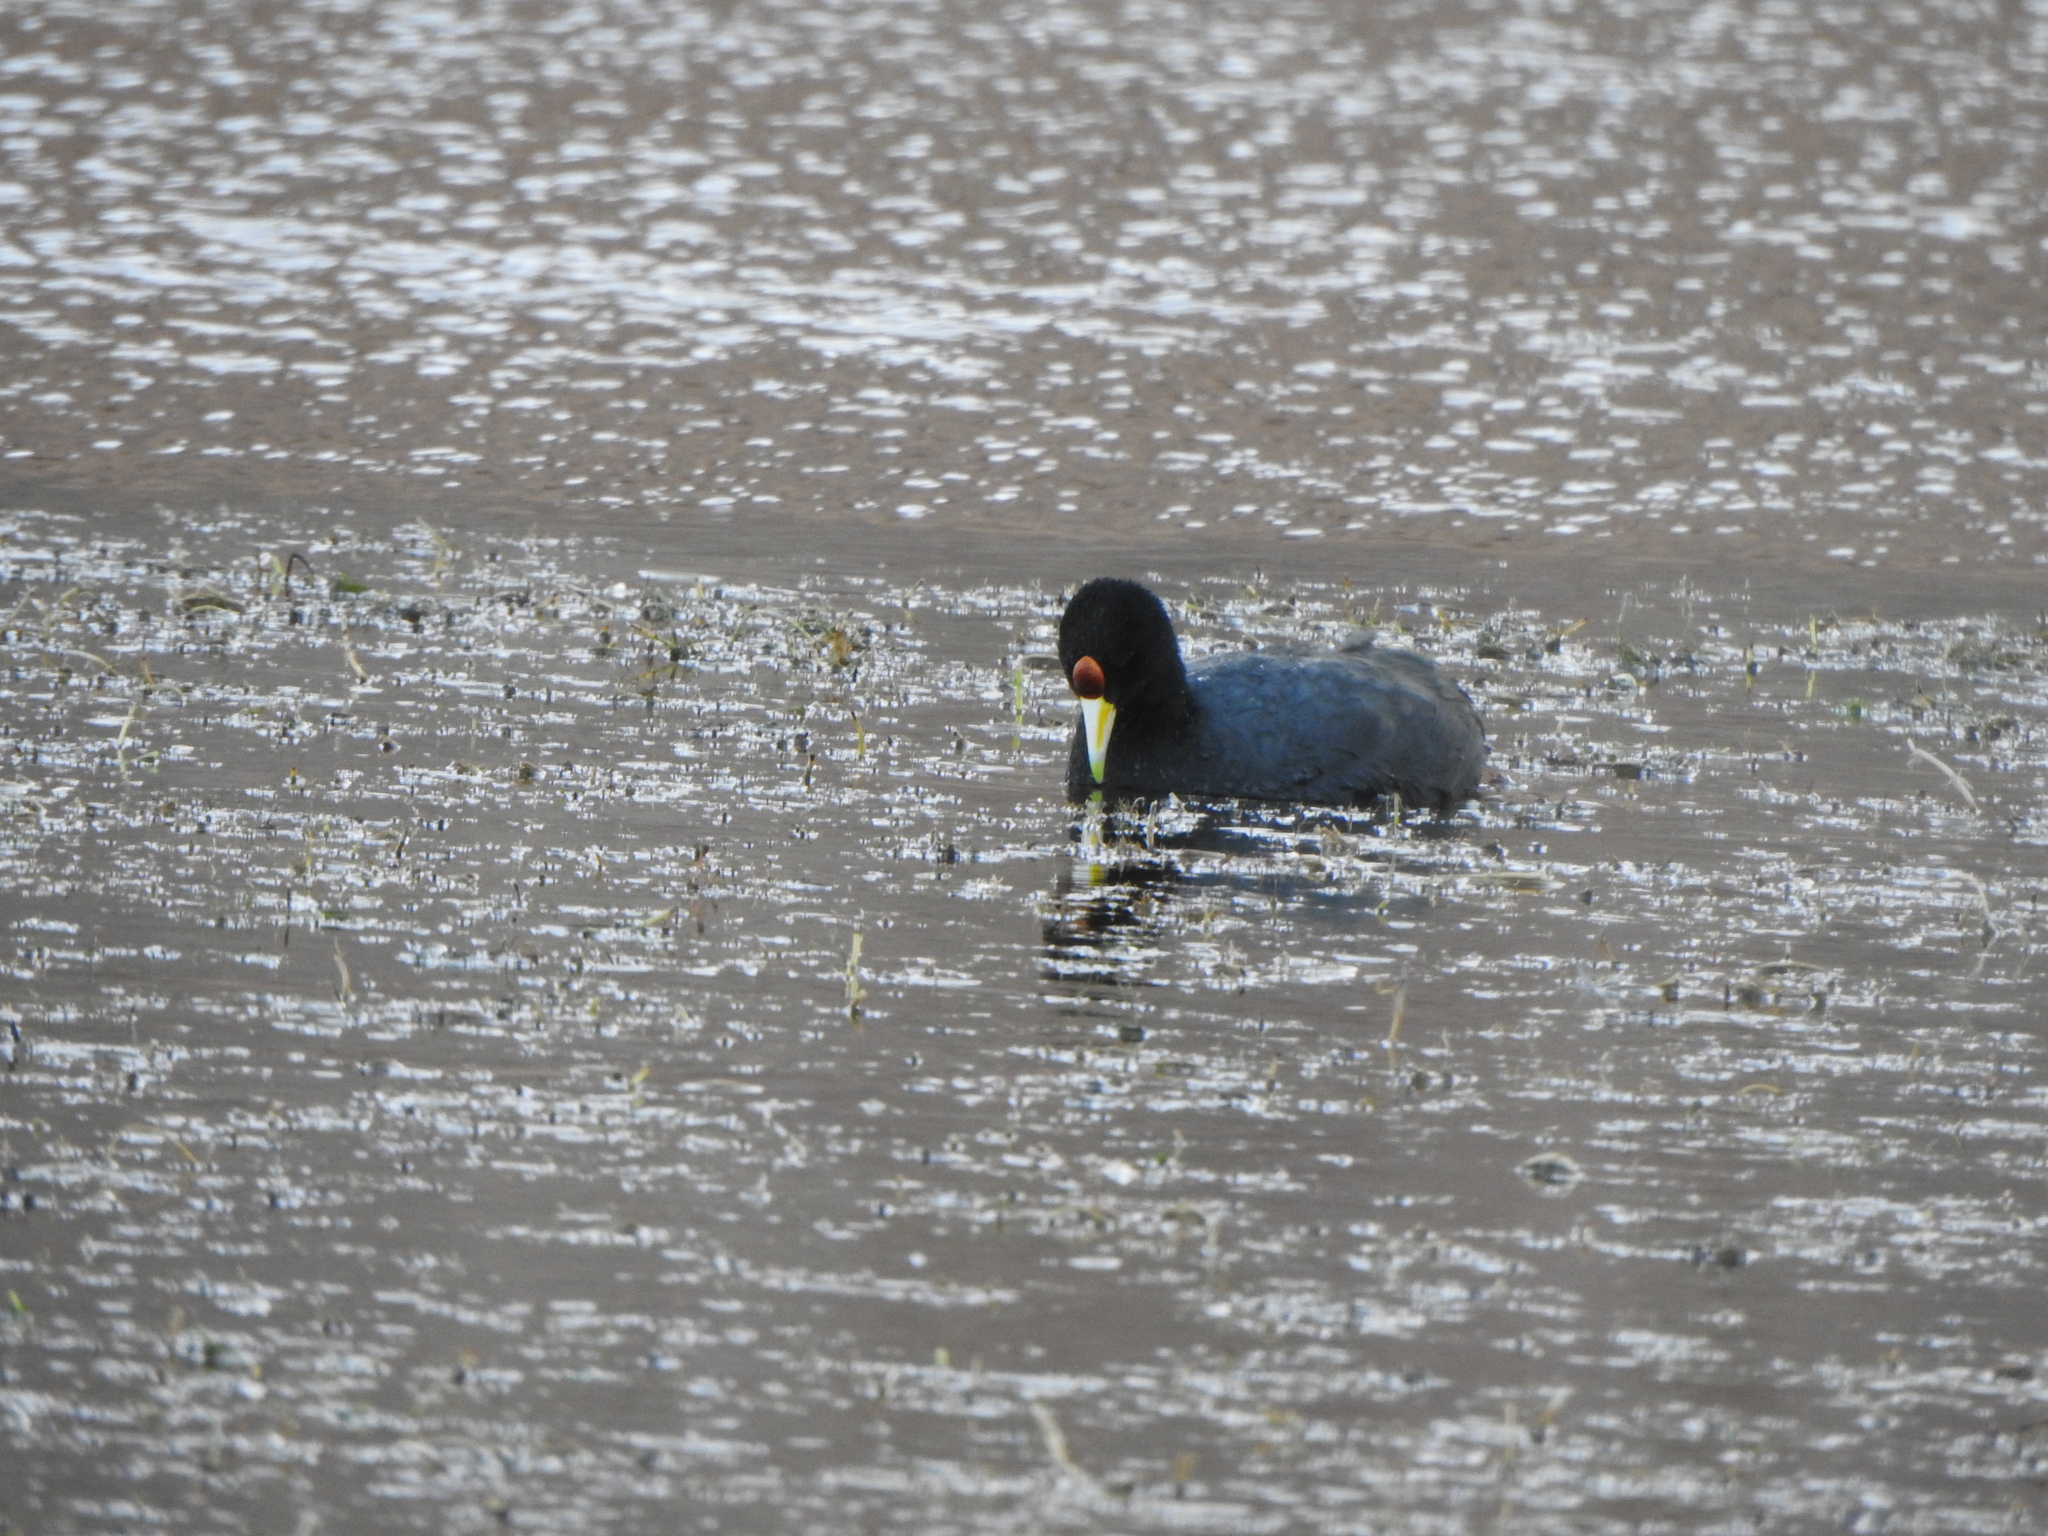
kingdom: Animalia
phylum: Chordata
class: Aves
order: Gruiformes
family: Rallidae
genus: Fulica
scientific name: Fulica ardesiaca
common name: Andean coot
